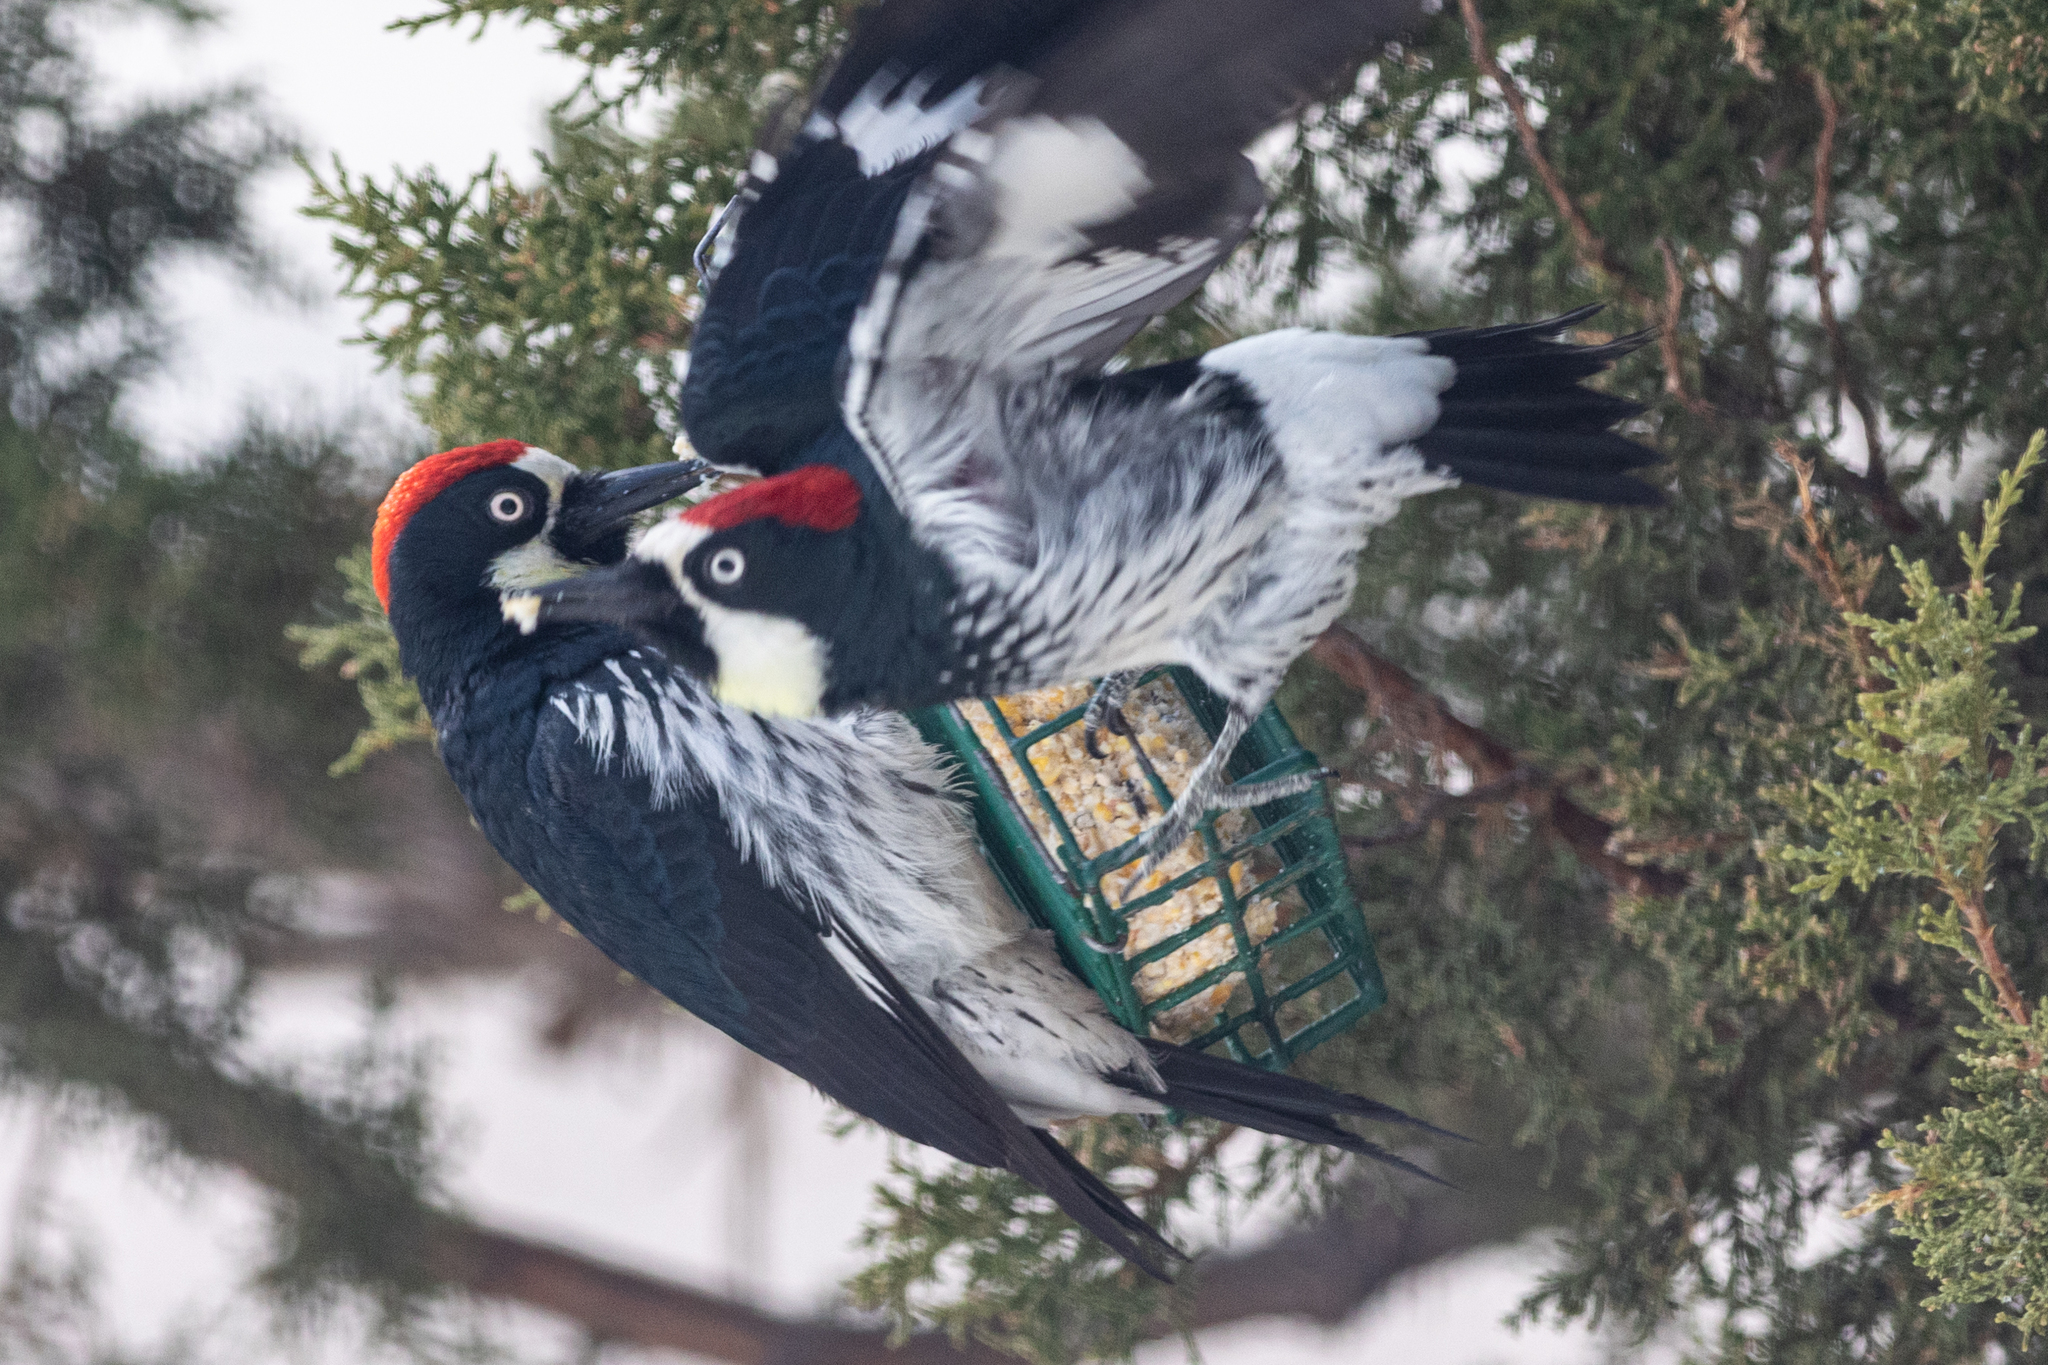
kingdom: Animalia
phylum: Chordata
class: Aves
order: Piciformes
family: Picidae
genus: Melanerpes
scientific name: Melanerpes formicivorus
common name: Acorn woodpecker
